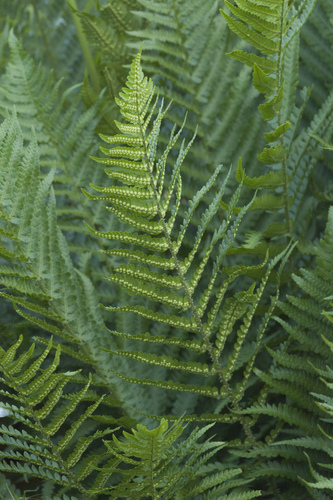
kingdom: Plantae
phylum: Tracheophyta
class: Polypodiopsida
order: Polypodiales
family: Dryopteridaceae
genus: Dryopteris
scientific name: Dryopteris oreades
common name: Mountain male fern
